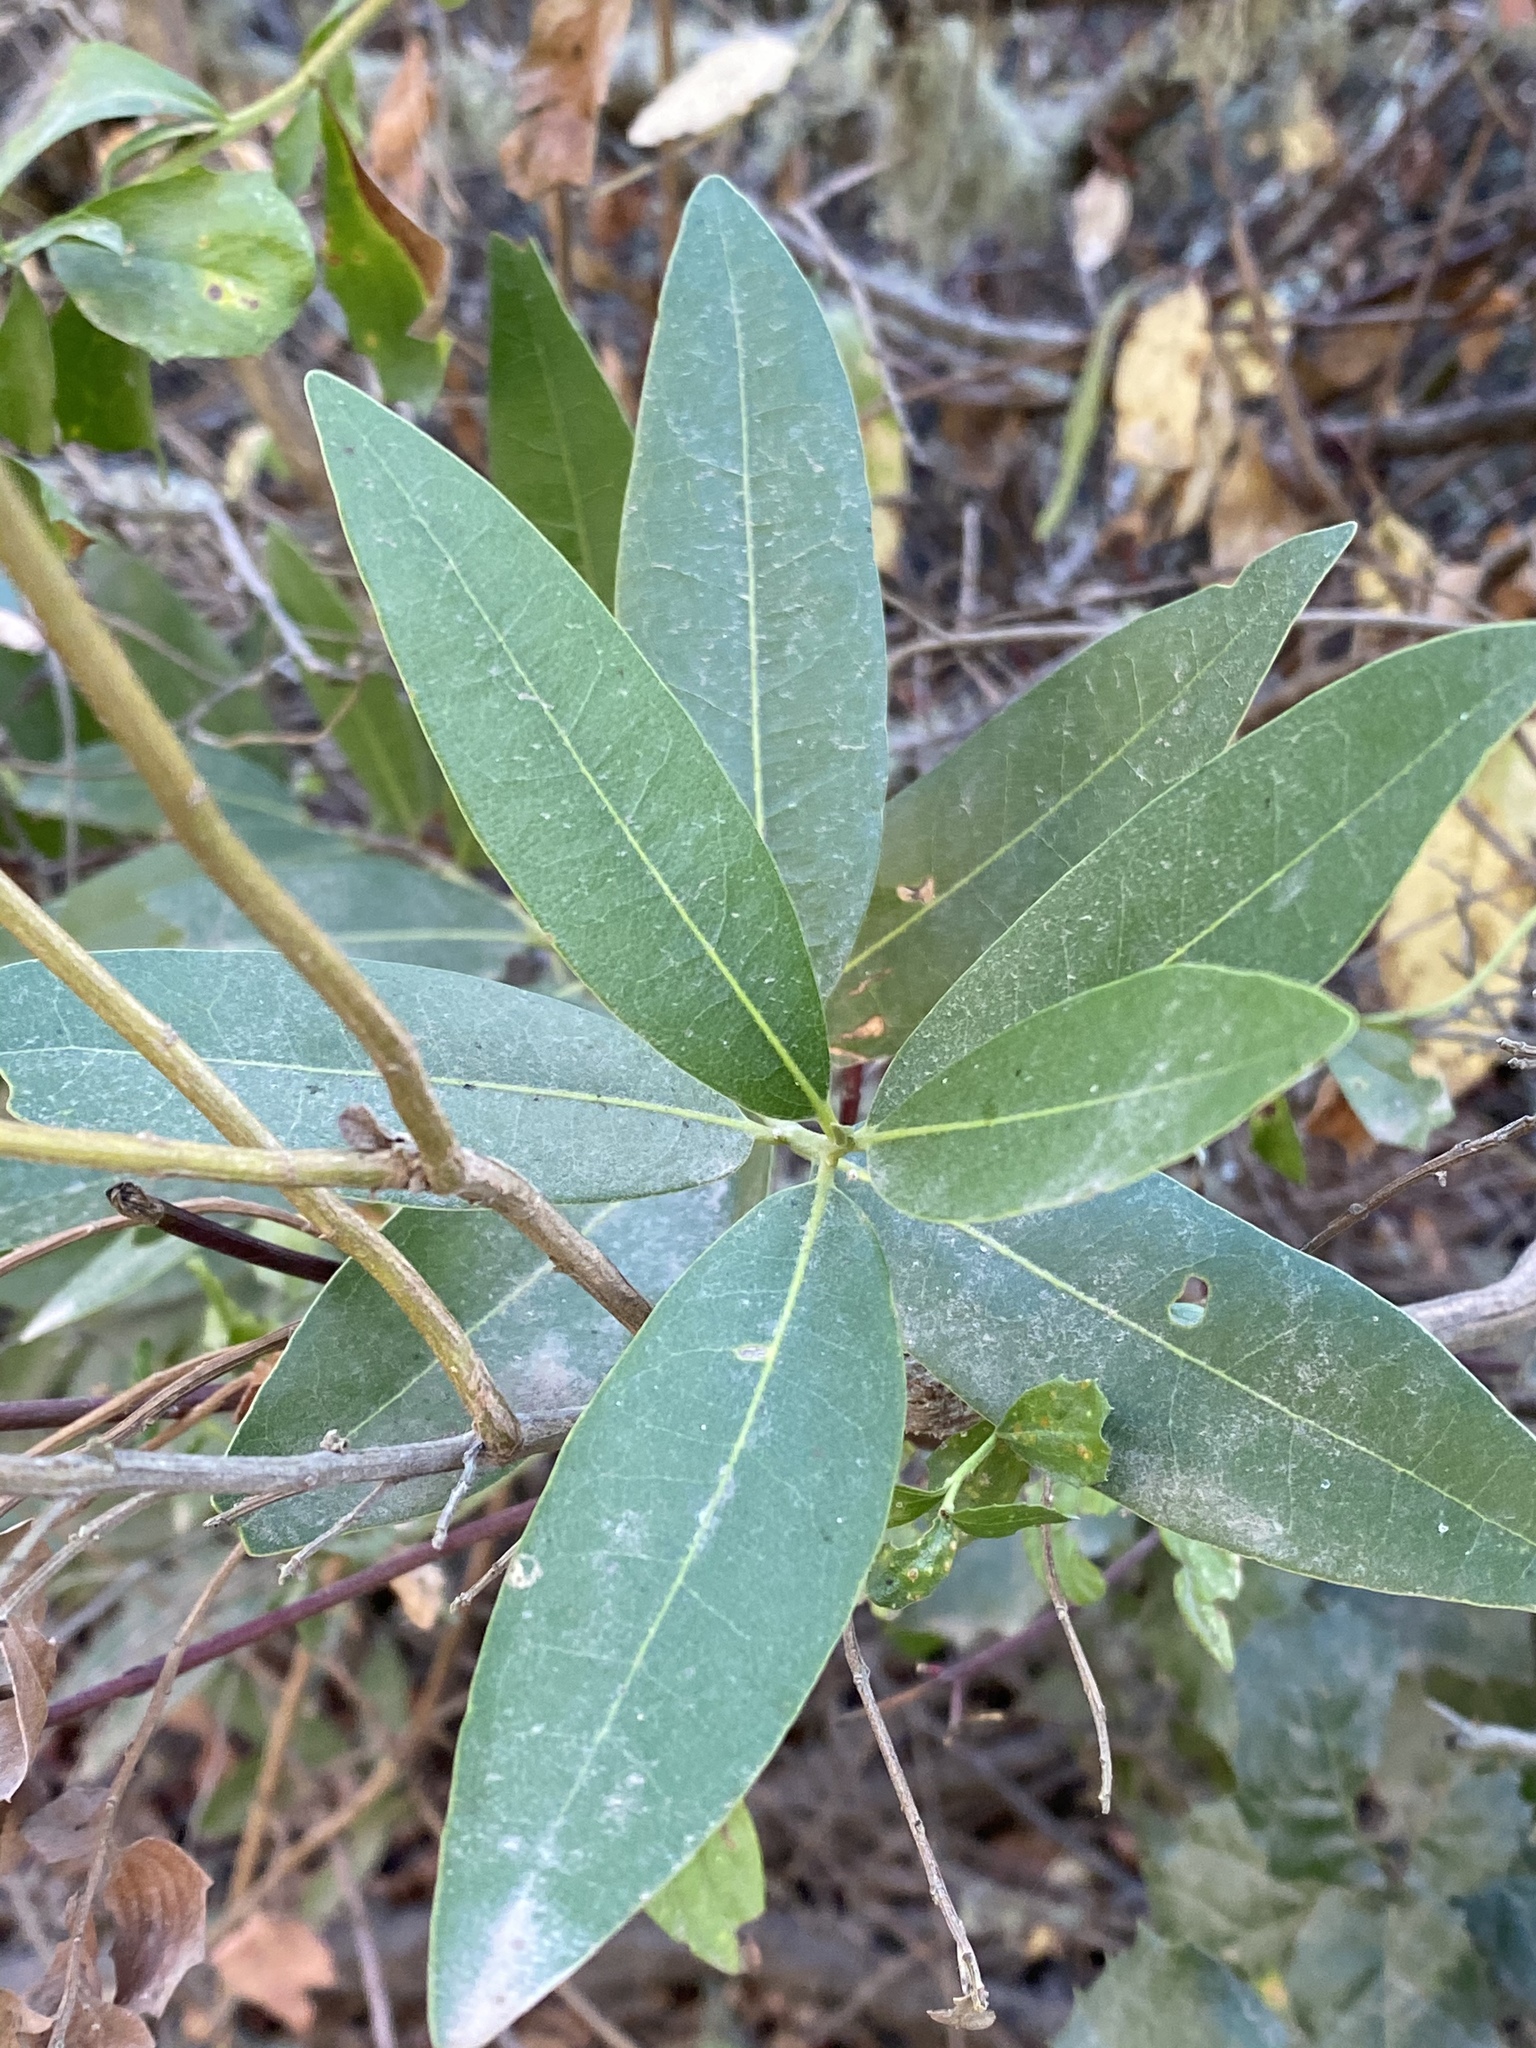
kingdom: Plantae
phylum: Tracheophyta
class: Magnoliopsida
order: Laurales
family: Lauraceae
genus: Umbellularia
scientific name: Umbellularia californica
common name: California bay
